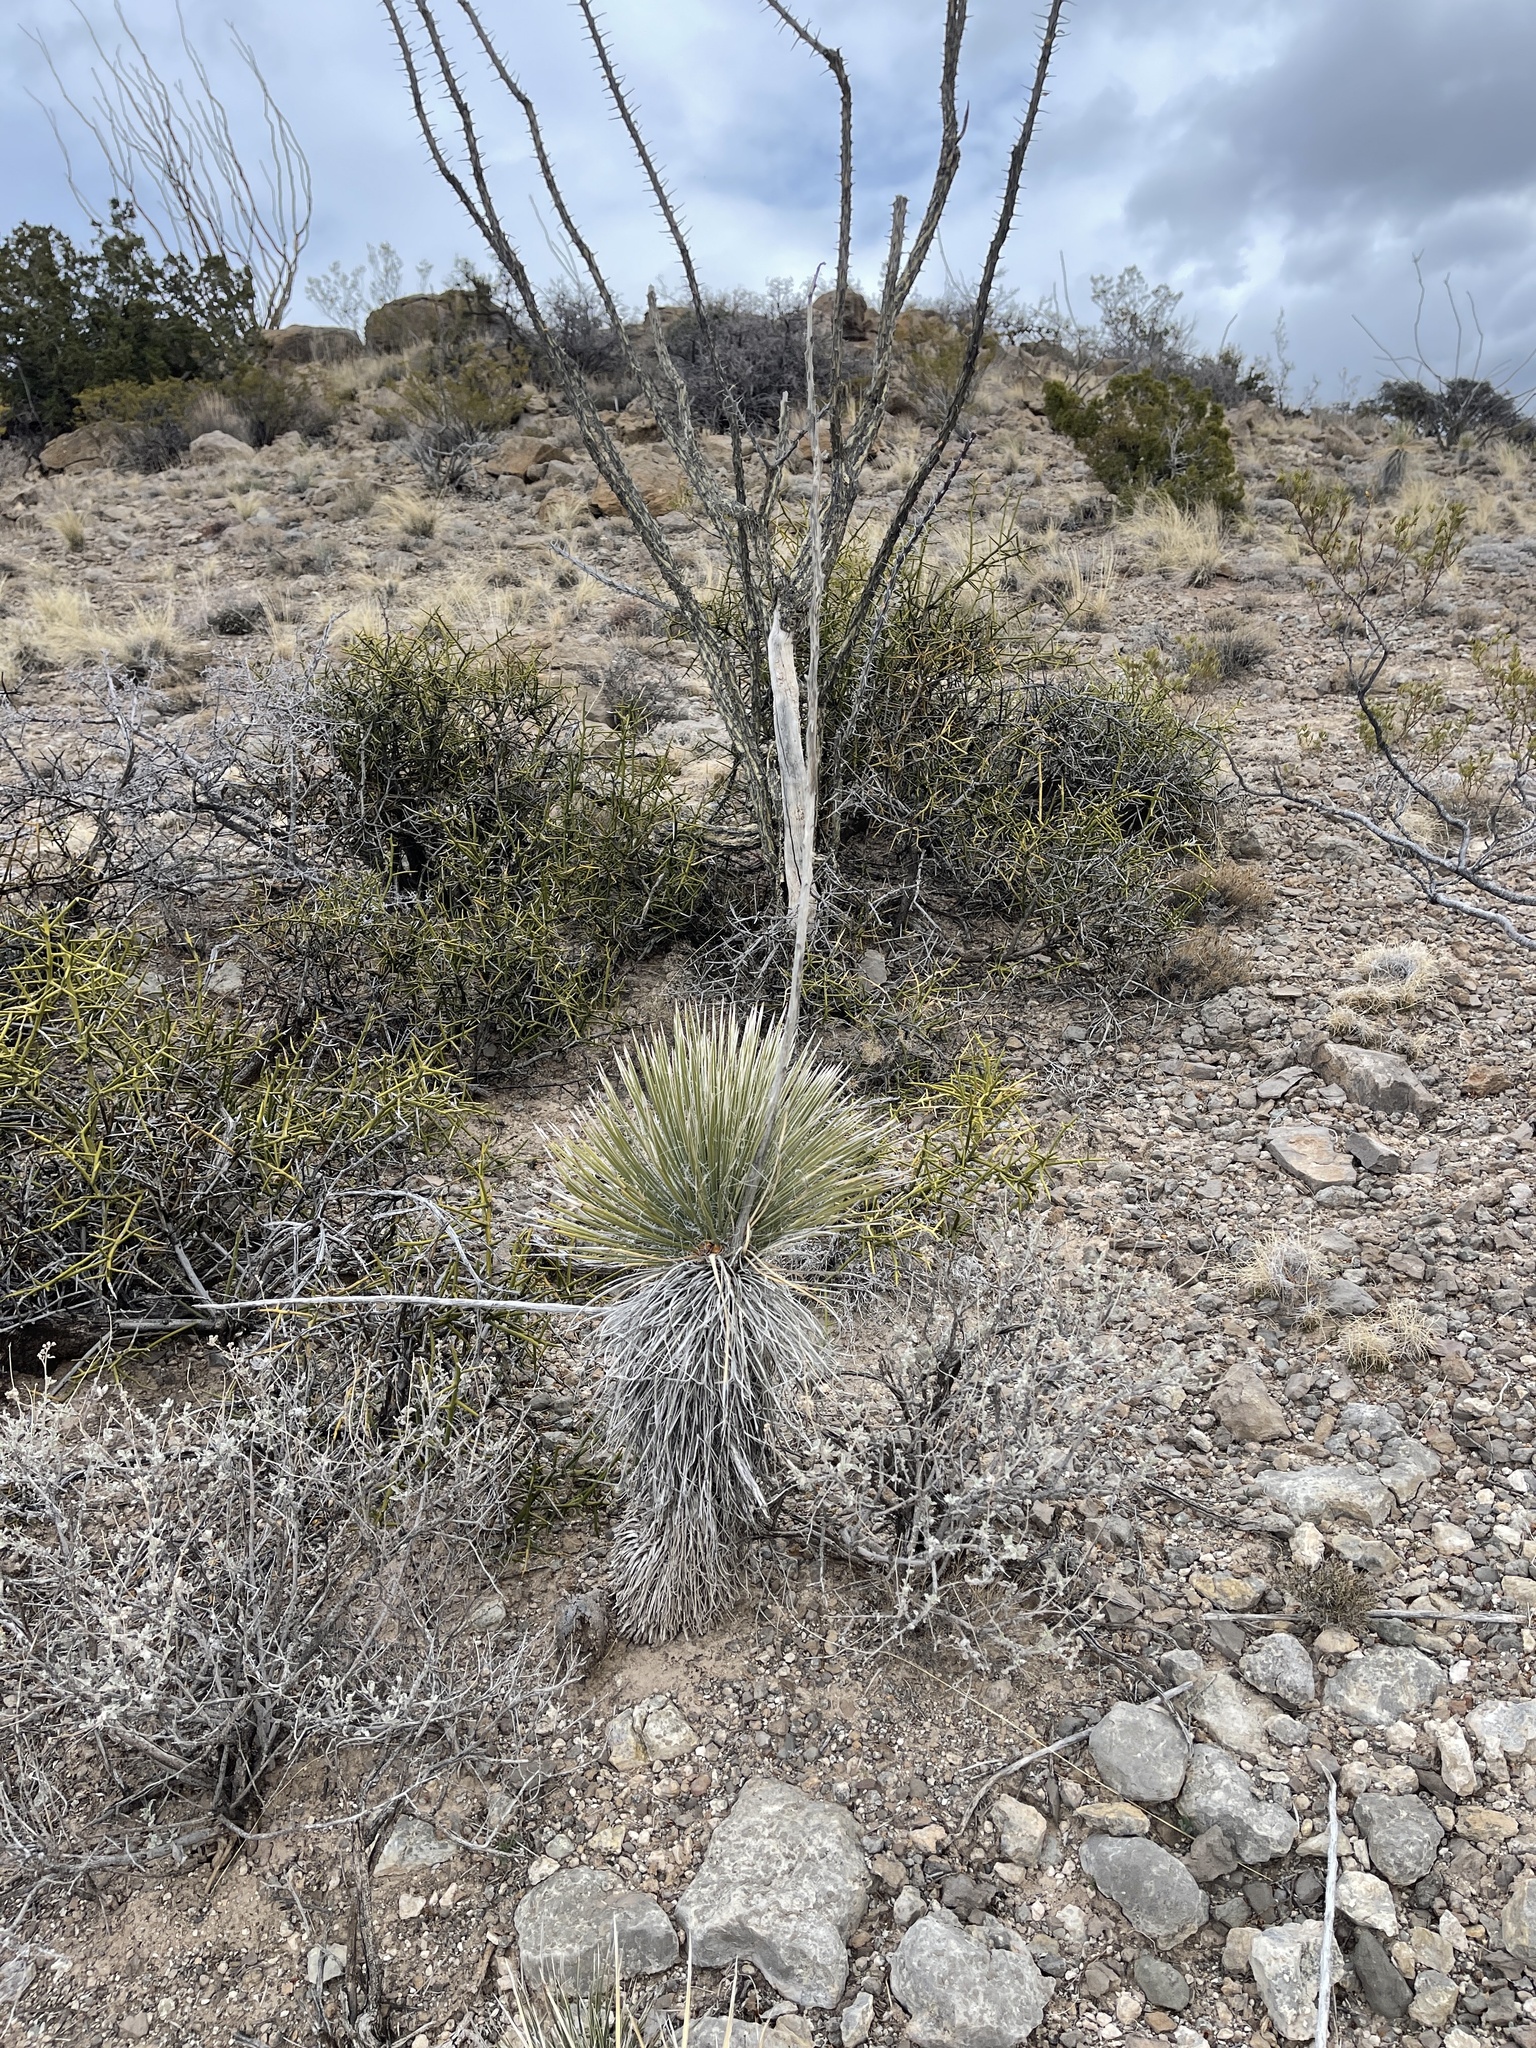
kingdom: Plantae
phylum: Tracheophyta
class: Liliopsida
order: Asparagales
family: Asparagaceae
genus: Yucca
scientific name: Yucca elata
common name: Palmella
